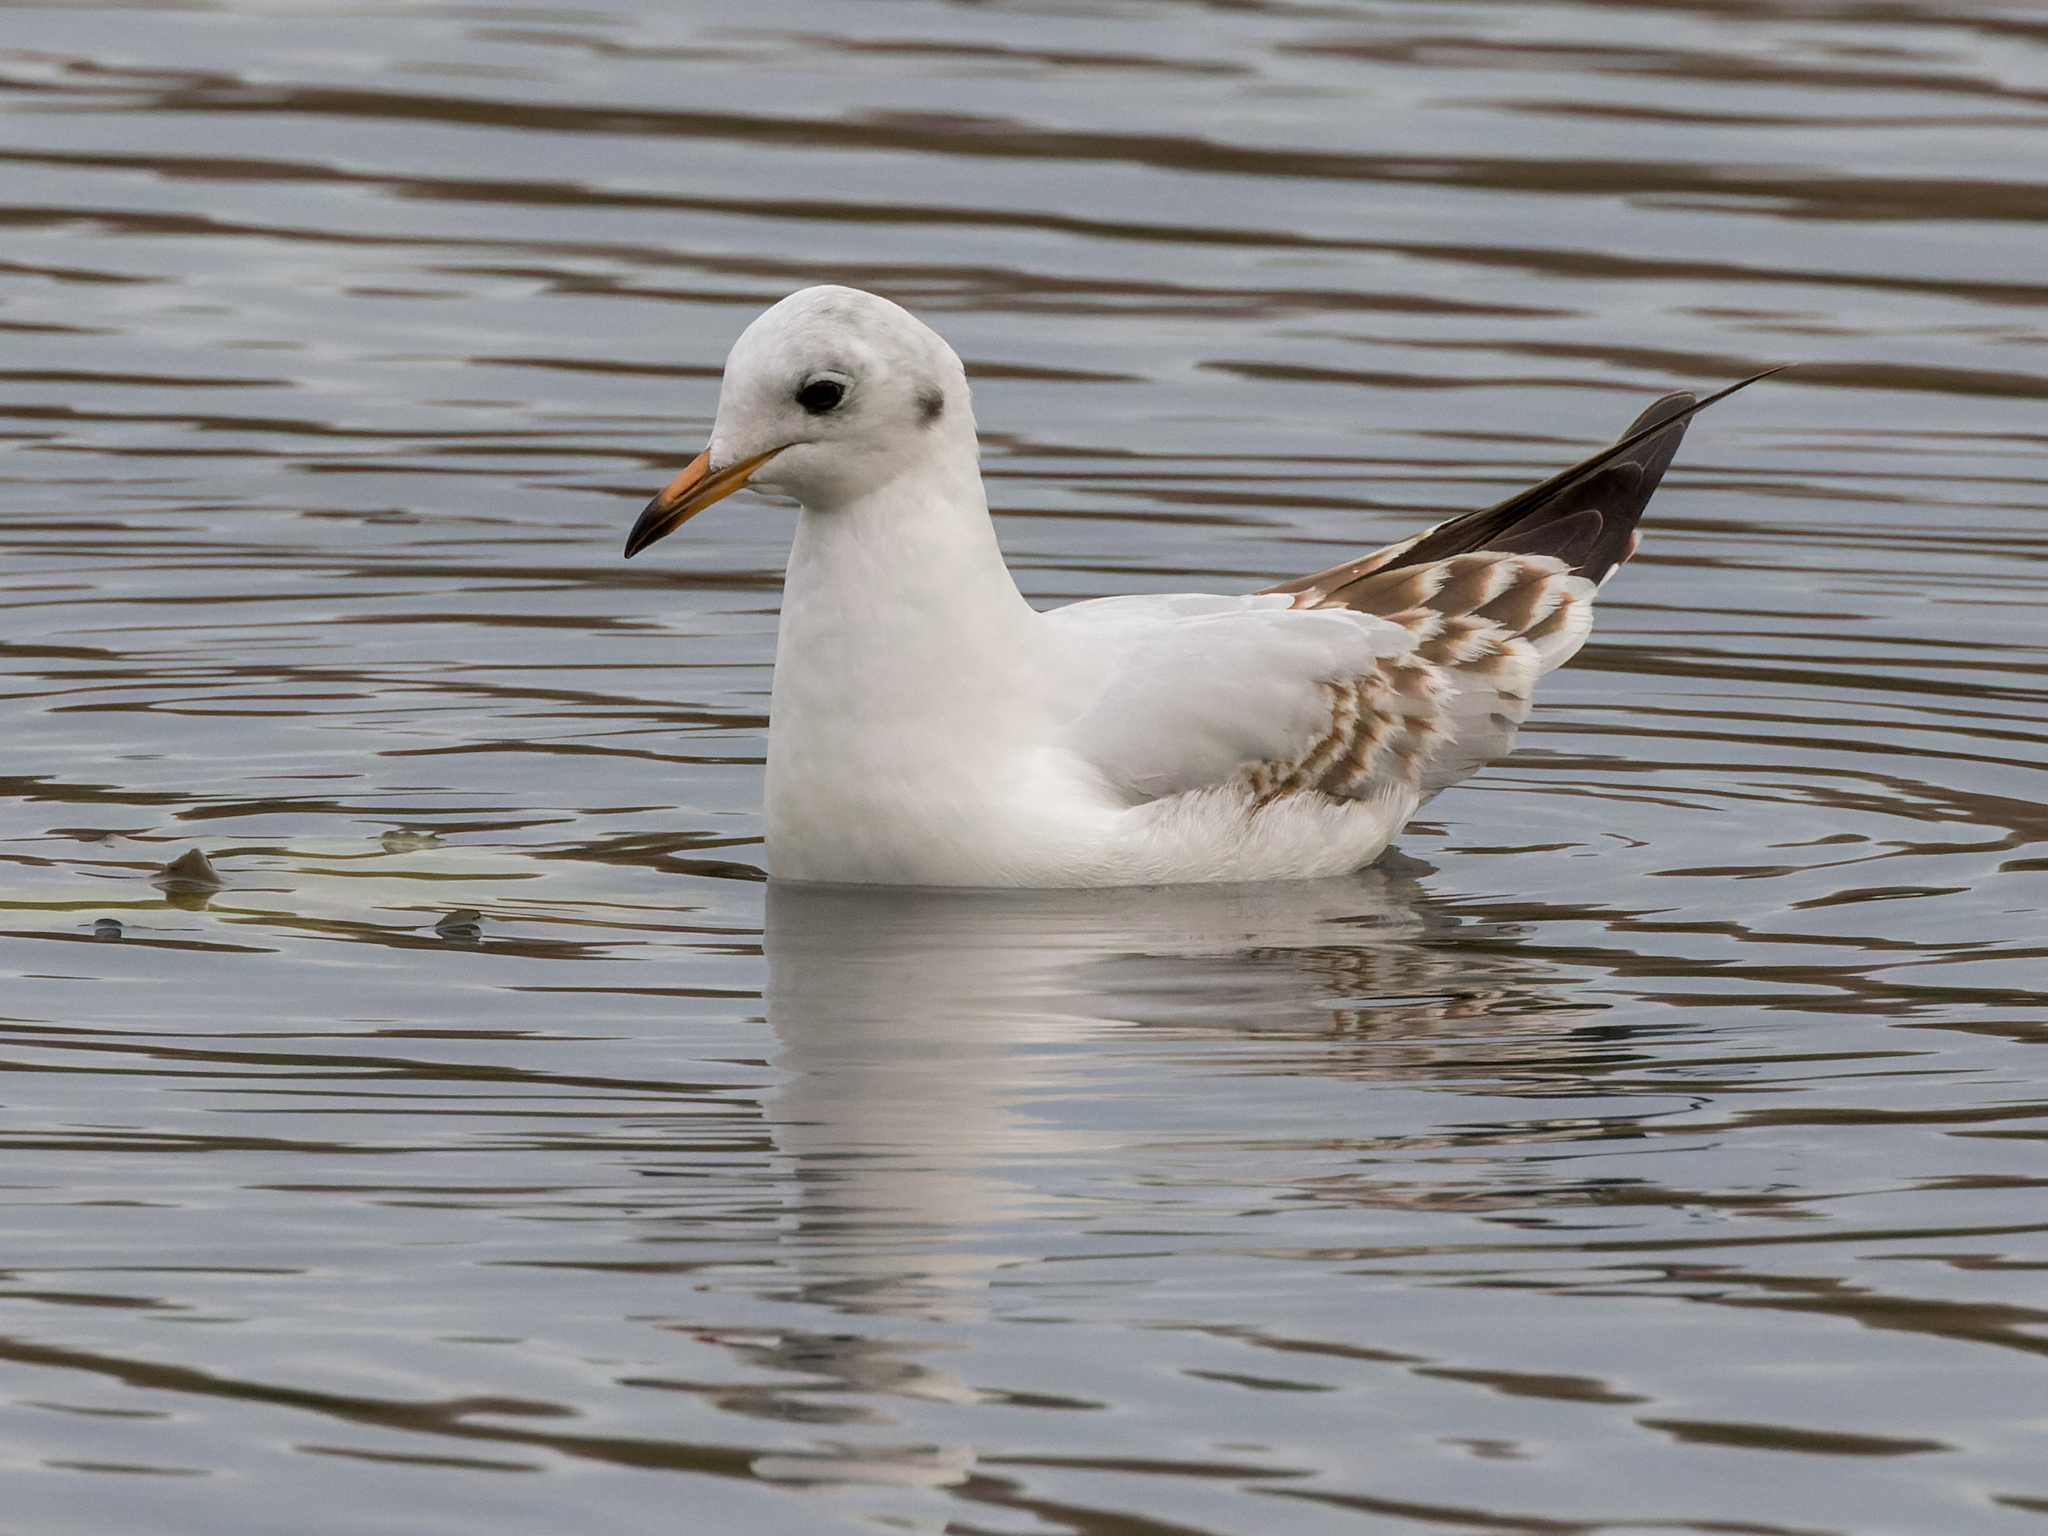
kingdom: Animalia
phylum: Chordata
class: Aves
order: Charadriiformes
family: Laridae
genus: Chroicocephalus
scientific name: Chroicocephalus ridibundus
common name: Black-headed gull
